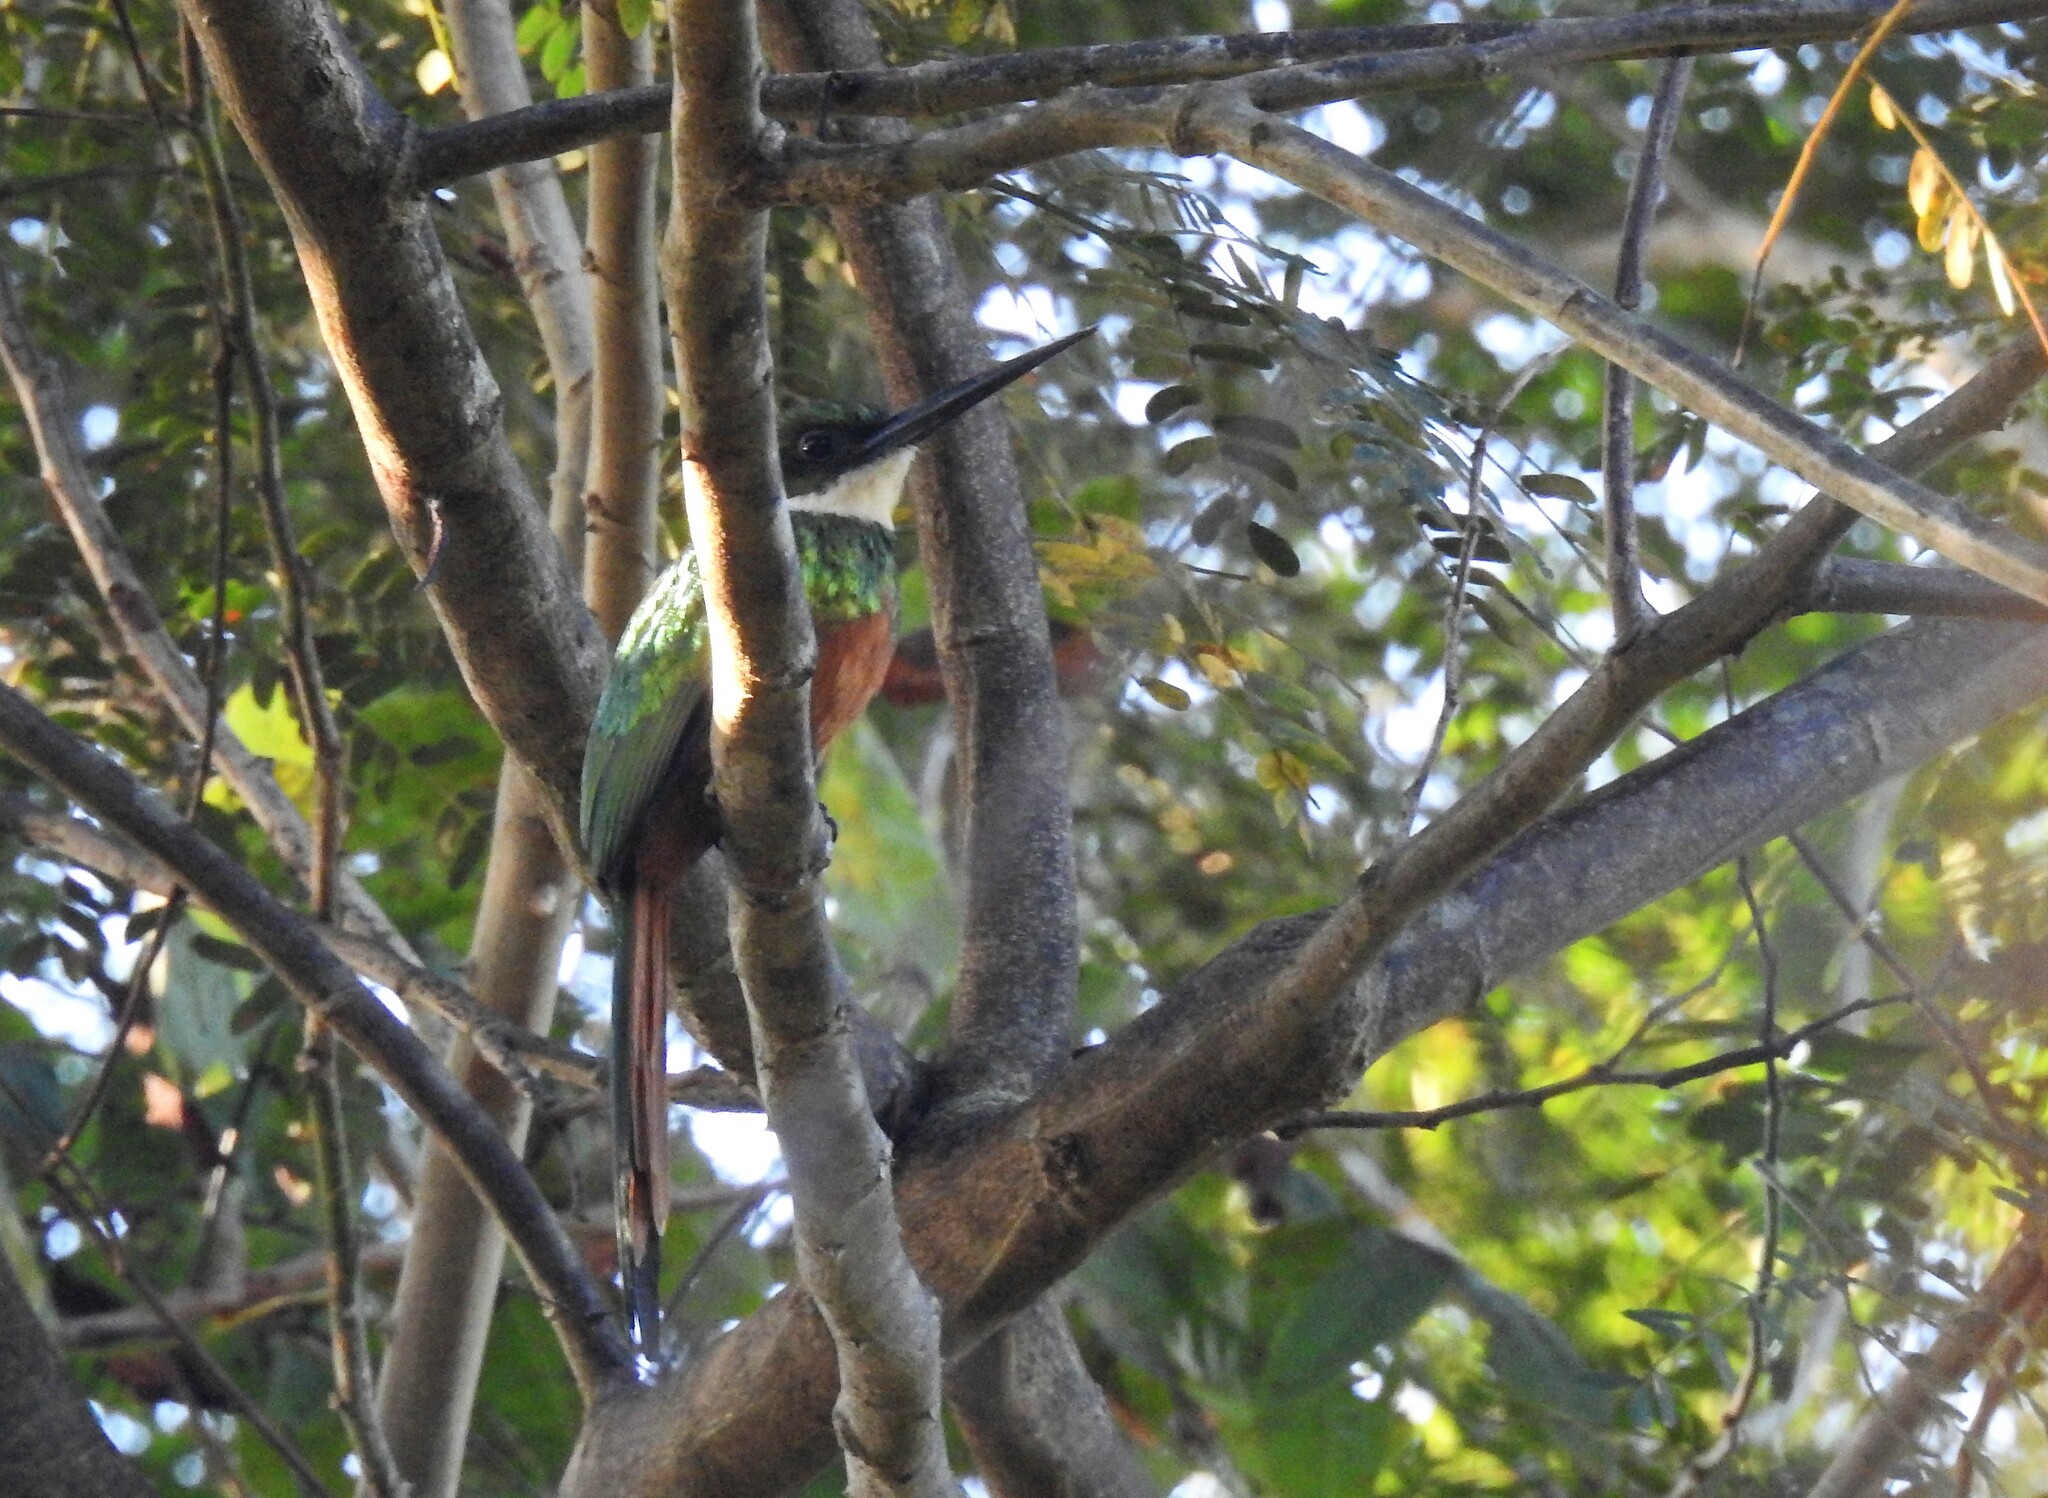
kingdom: Animalia
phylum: Chordata
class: Aves
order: Piciformes
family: Galbulidae
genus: Galbula
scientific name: Galbula ruficauda
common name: Rufous-tailed jacamar
